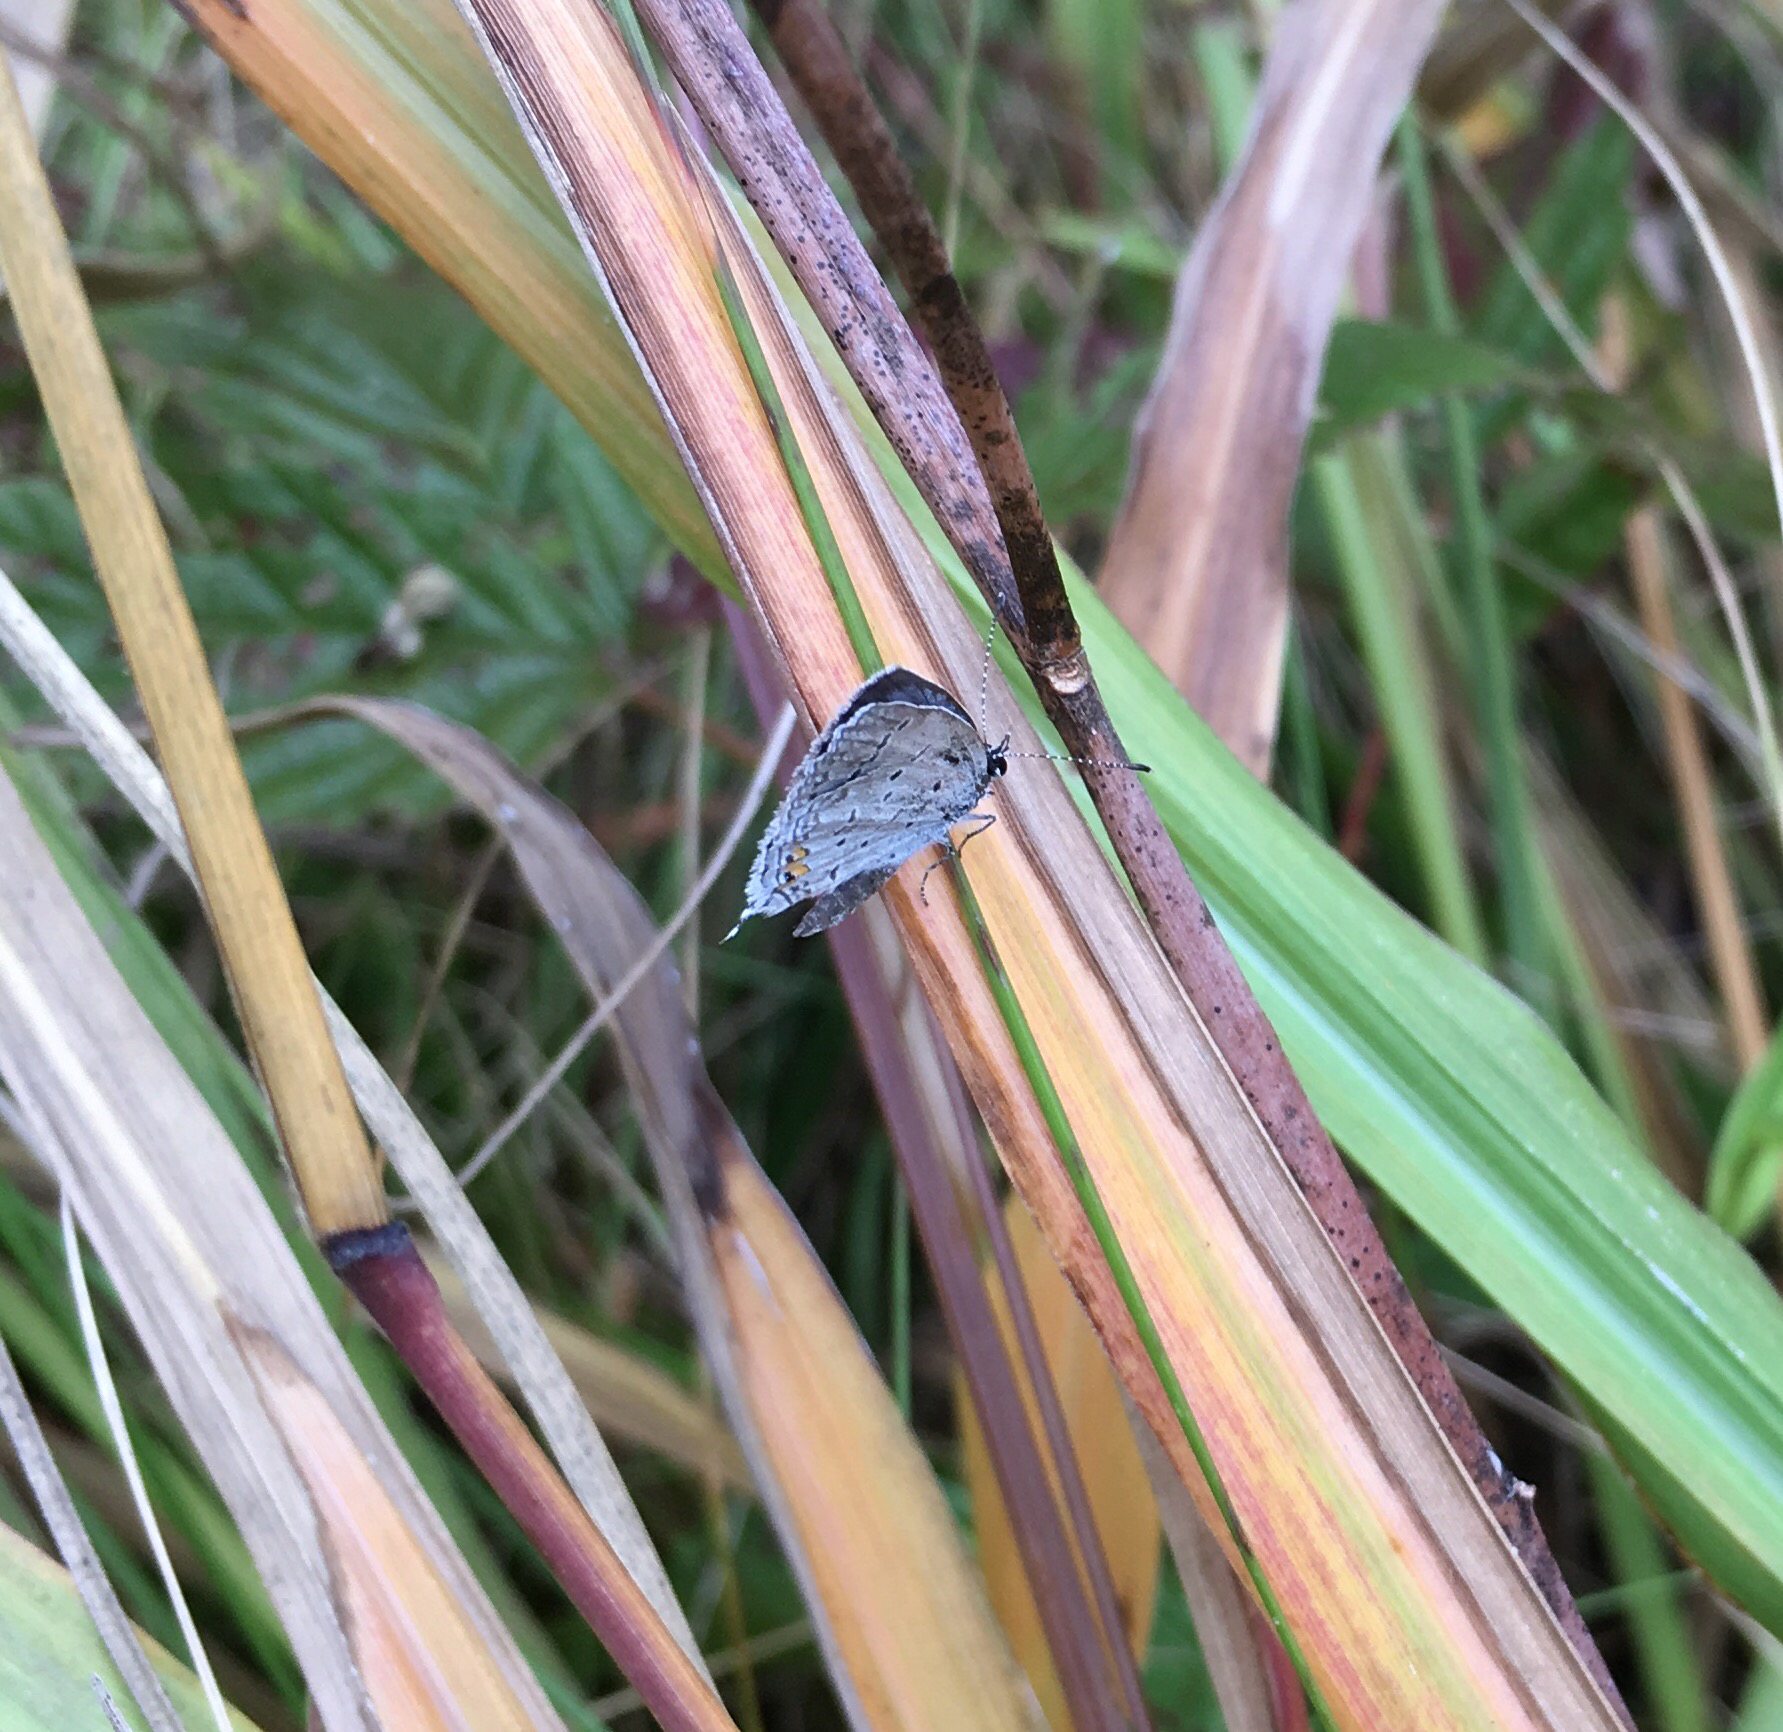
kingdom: Animalia
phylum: Arthropoda
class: Insecta
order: Lepidoptera
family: Lycaenidae
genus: Elkalyce
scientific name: Elkalyce comyntas
